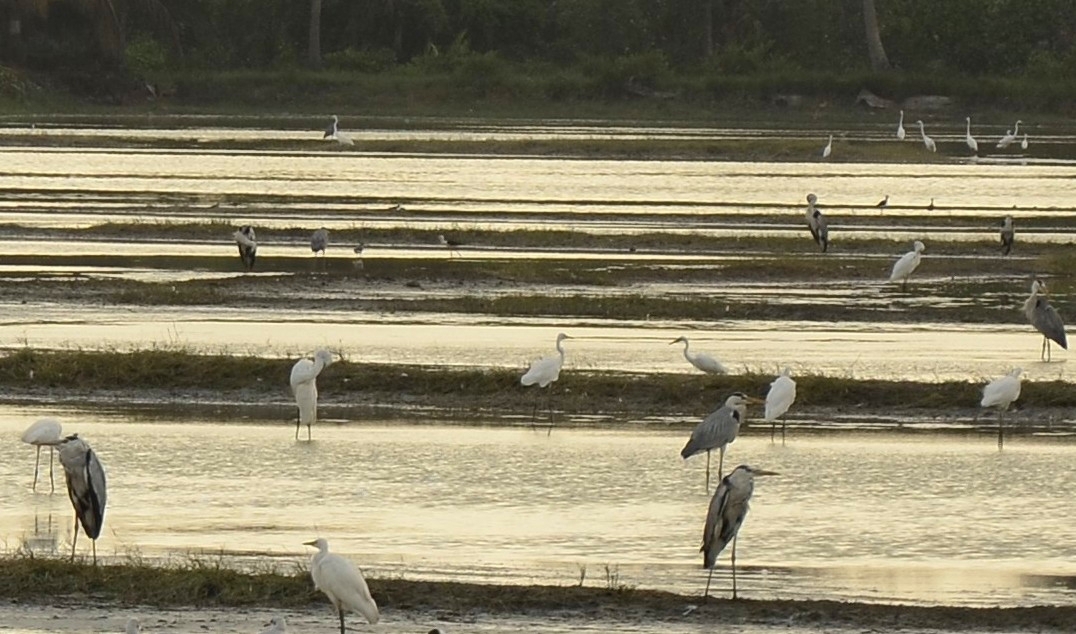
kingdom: Animalia
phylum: Chordata
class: Aves
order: Pelecaniformes
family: Ardeidae
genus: Ardea
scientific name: Ardea cinerea
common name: Grey heron
